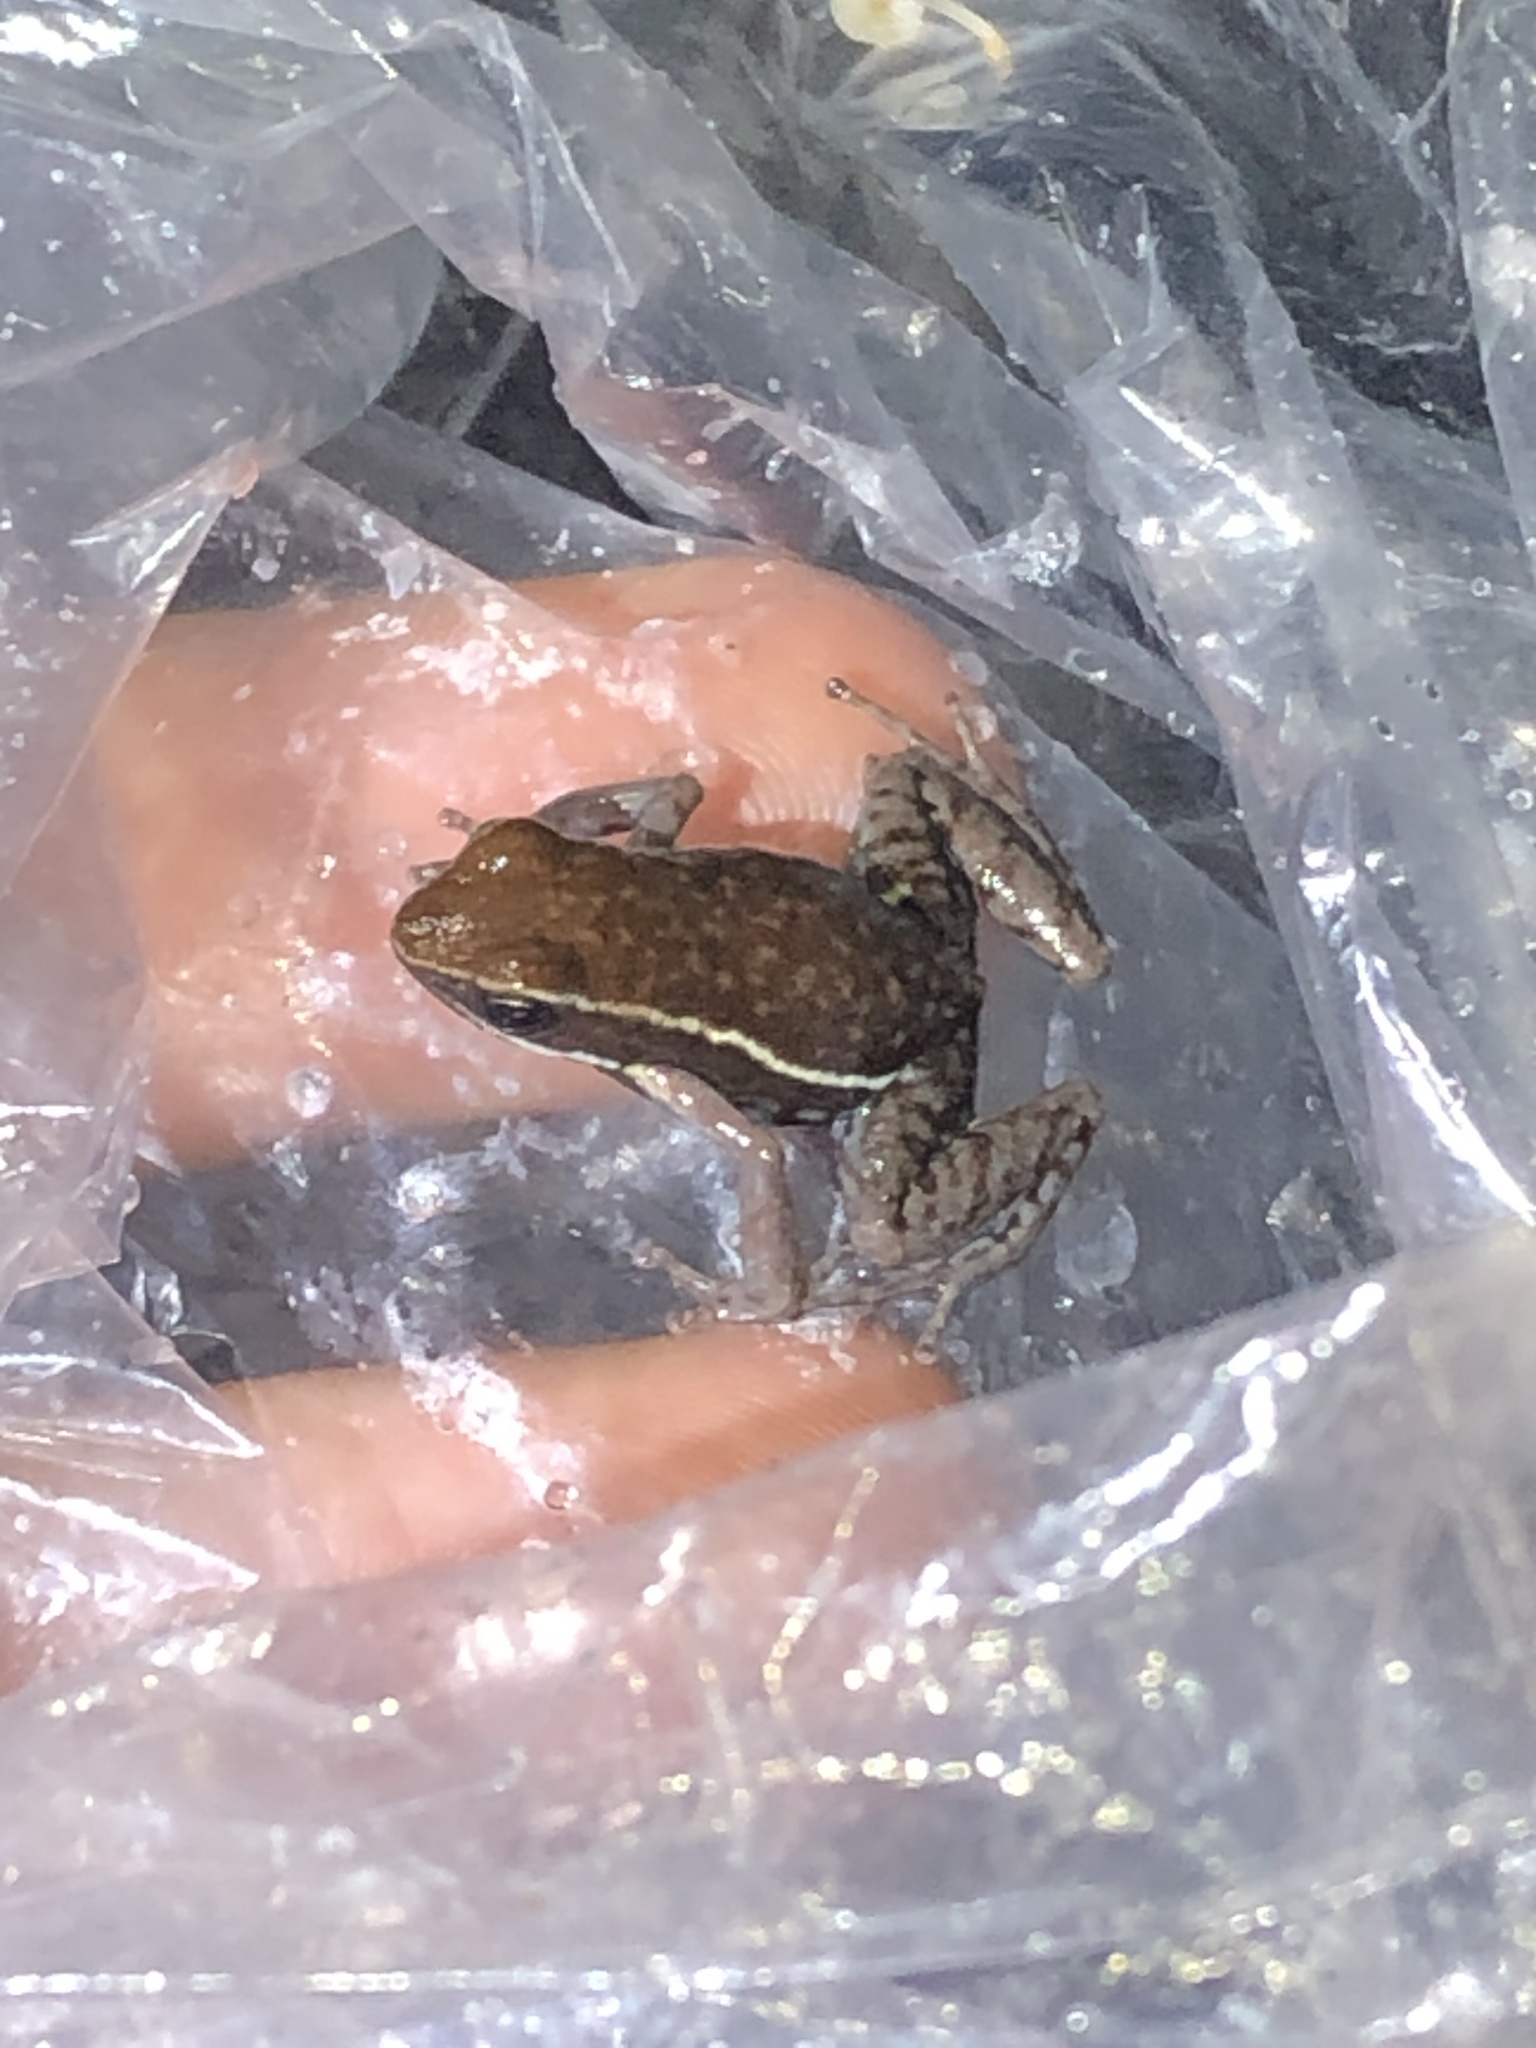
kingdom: Animalia
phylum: Chordata
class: Amphibia
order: Anura
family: Dendrobatidae
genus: Ameerega
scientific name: Ameerega hahneli
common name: Yurimaguas pioson frog
